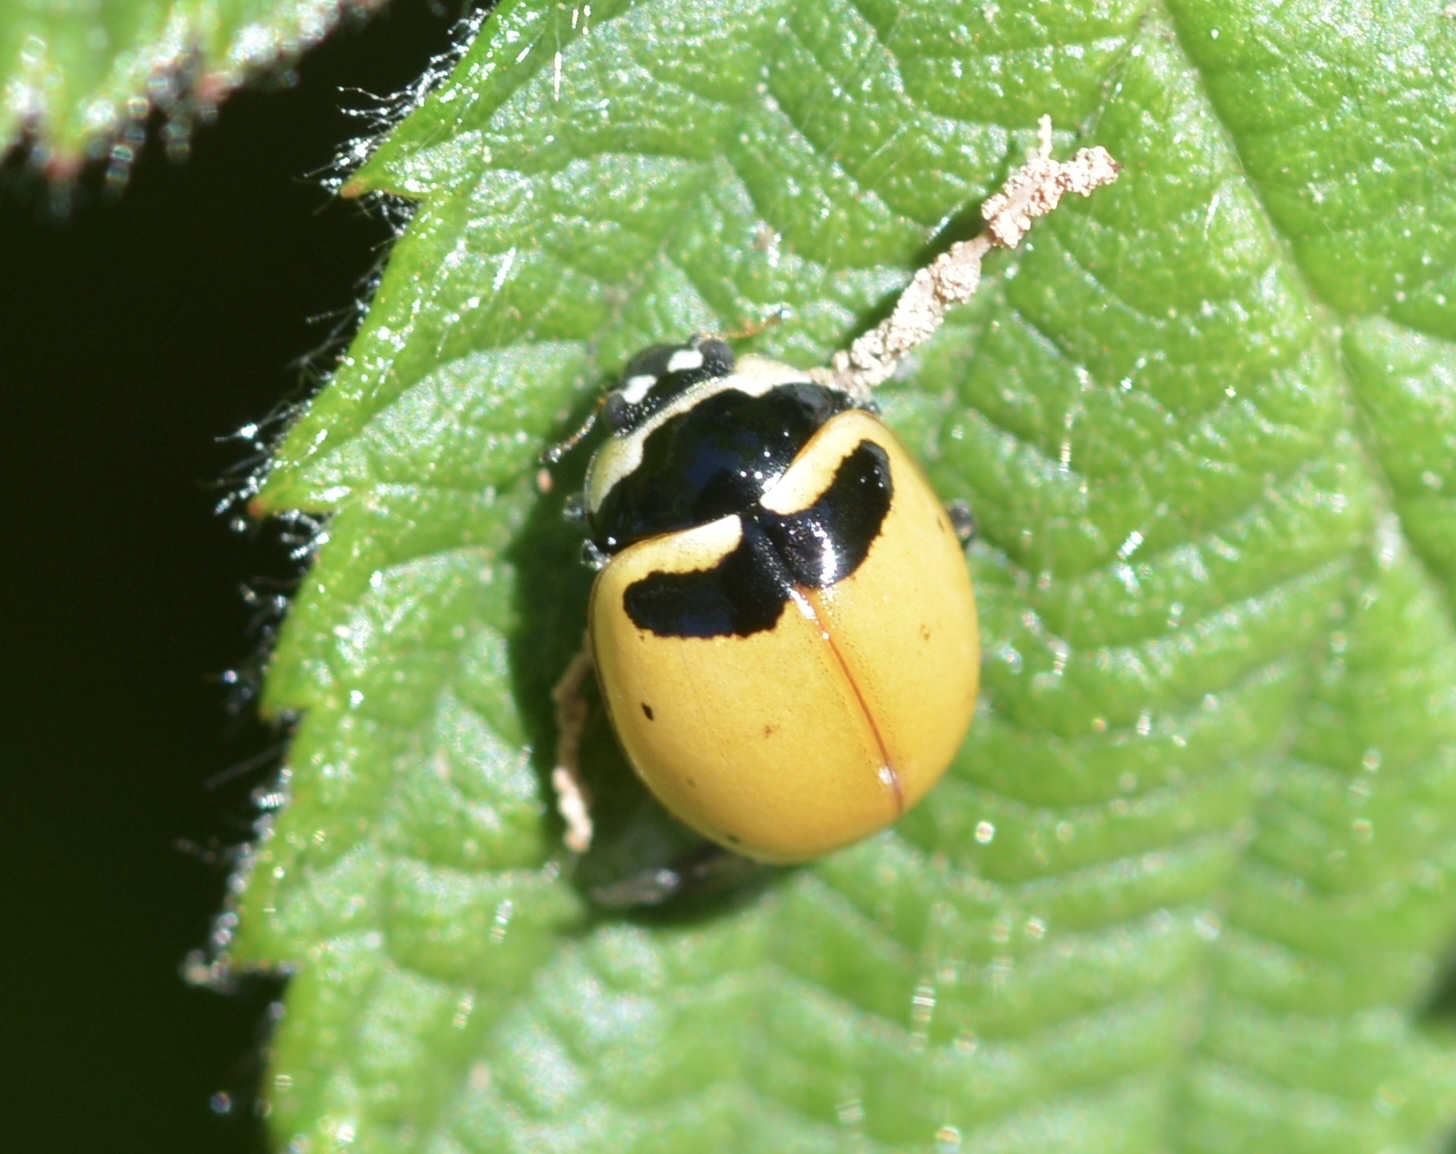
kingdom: Animalia
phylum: Arthropoda
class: Insecta
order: Coleoptera
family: Coccinellidae
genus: Coccinella
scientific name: Coccinella trifasciata
